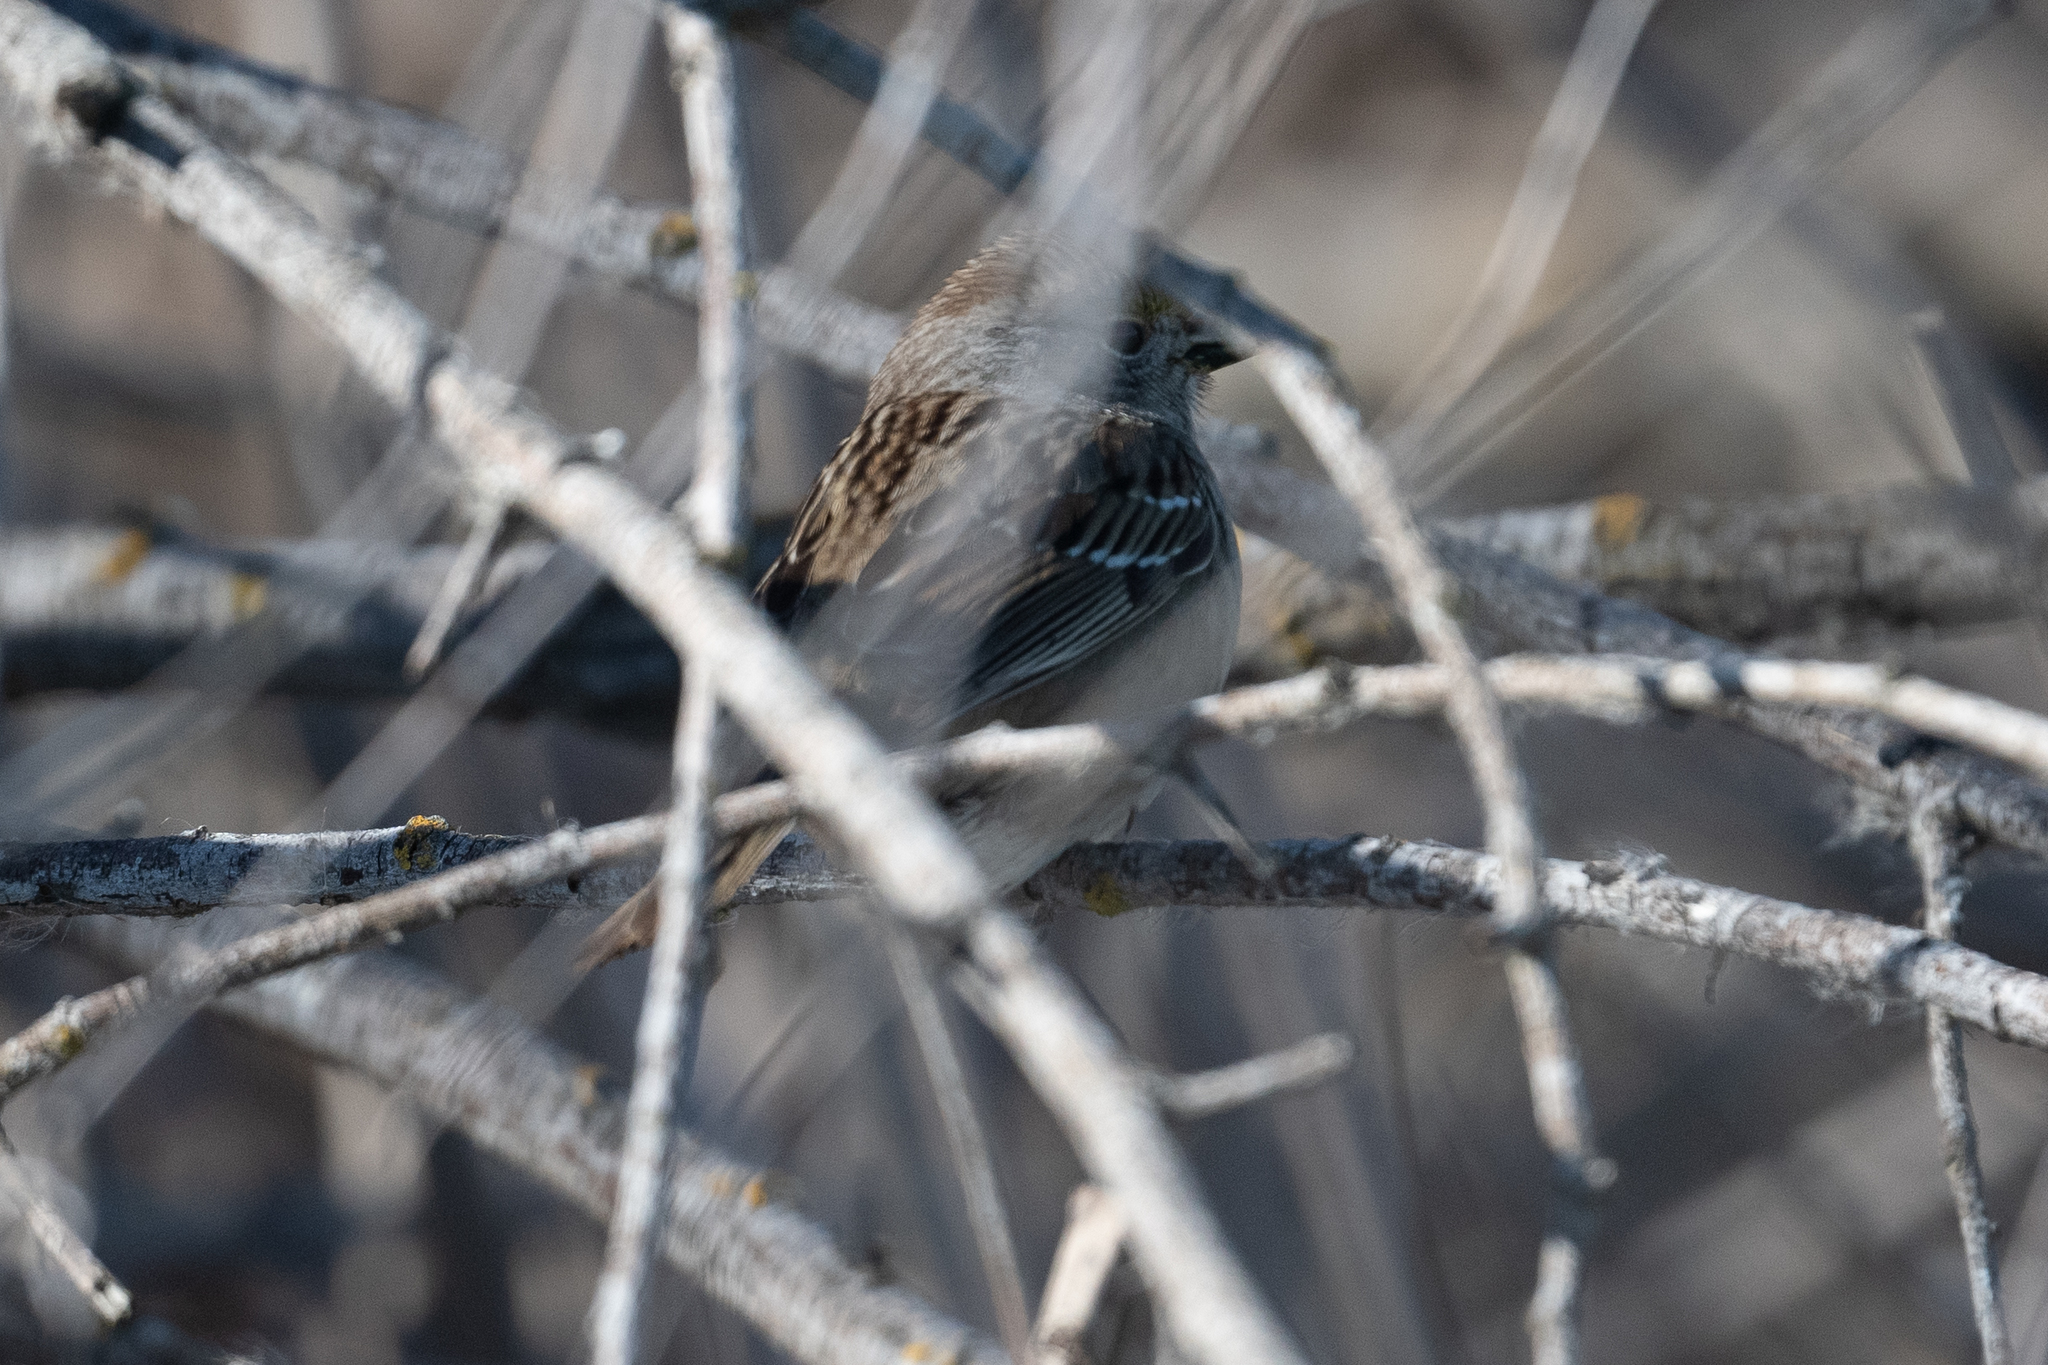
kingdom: Animalia
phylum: Chordata
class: Aves
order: Passeriformes
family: Passerellidae
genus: Zonotrichia
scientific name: Zonotrichia atricapilla
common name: Golden-crowned sparrow
